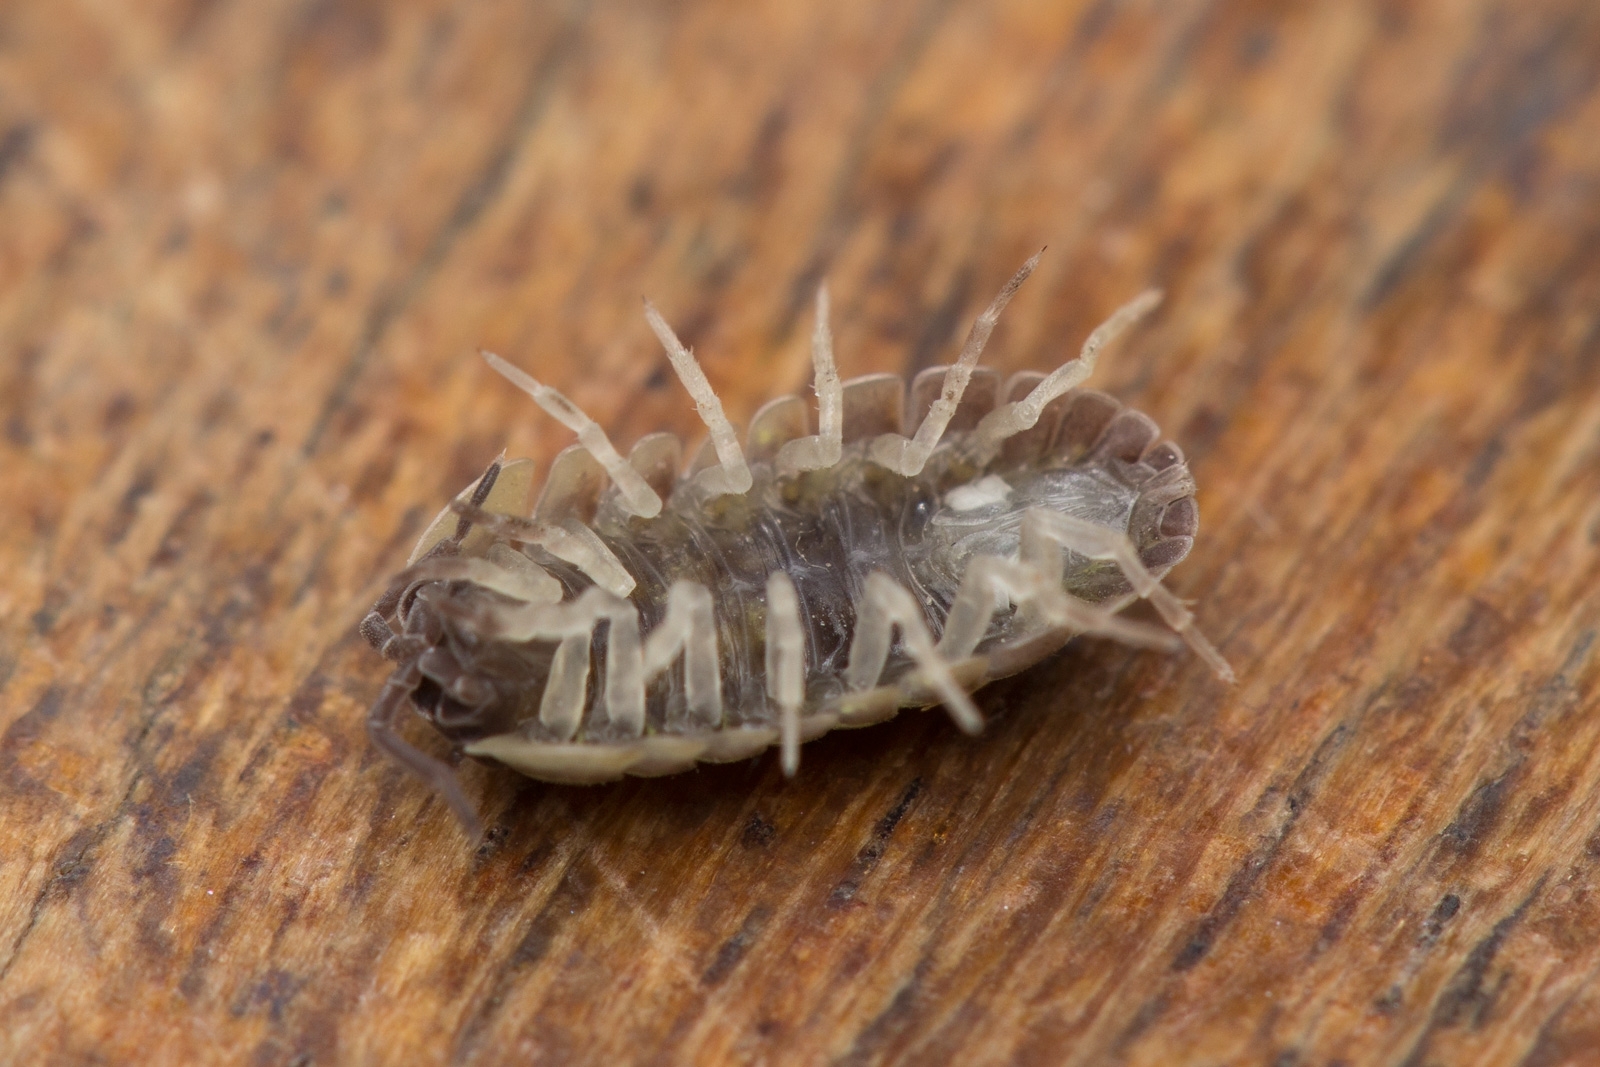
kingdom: Animalia
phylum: Arthropoda
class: Malacostraca
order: Isopoda
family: Armadillidiidae
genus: Armadillidium
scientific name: Armadillidium versicolor
